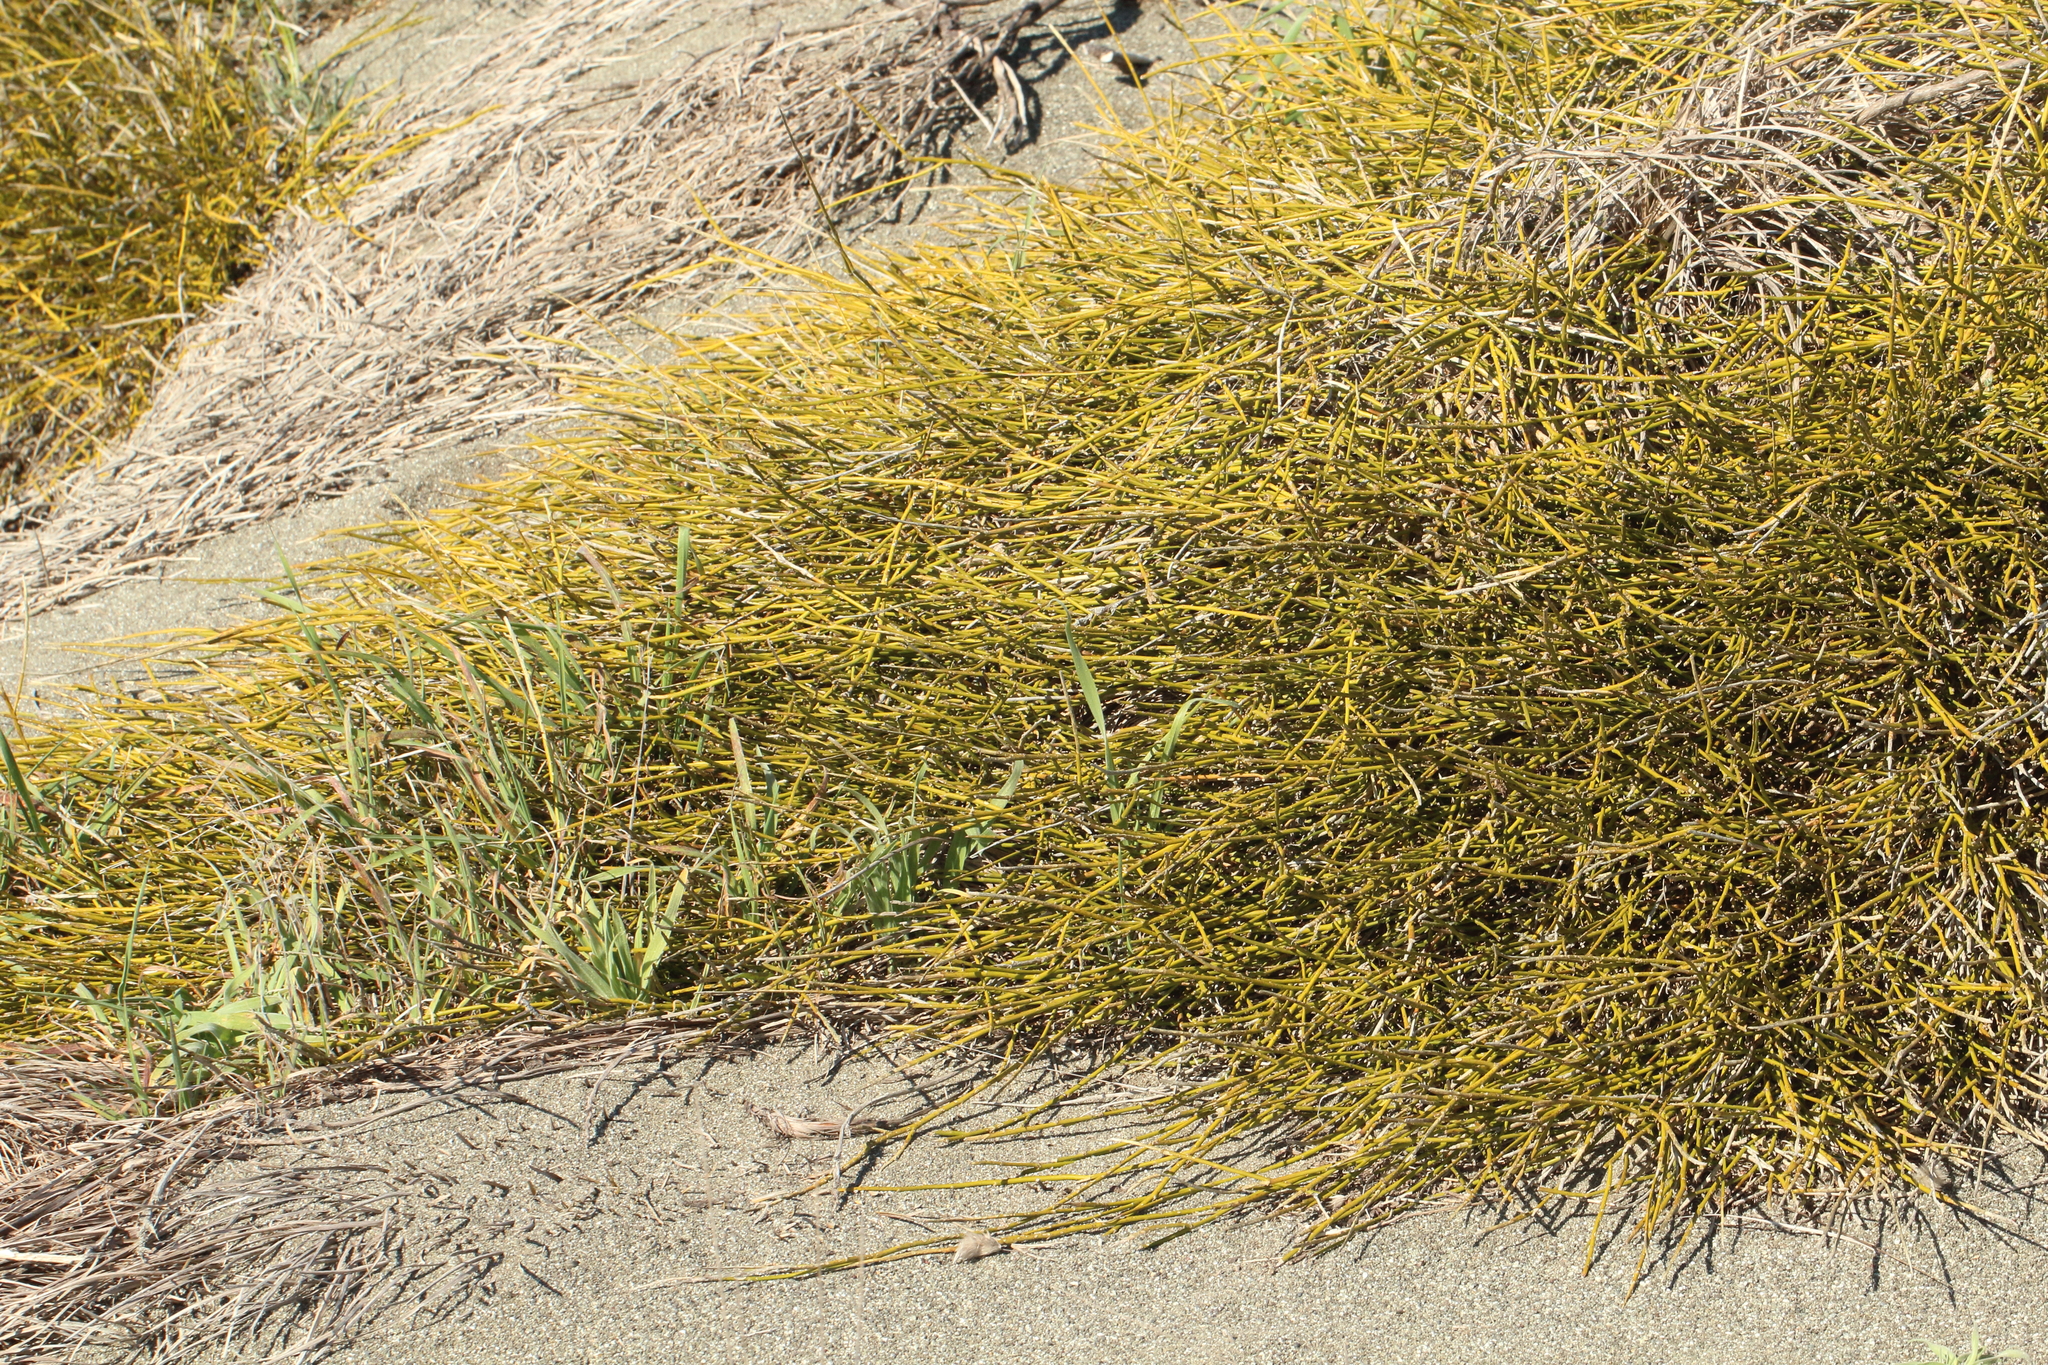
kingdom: Plantae
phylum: Tracheophyta
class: Magnoliopsida
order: Fabales
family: Fabaceae
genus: Carmichaelia
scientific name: Carmichaelia appressa
